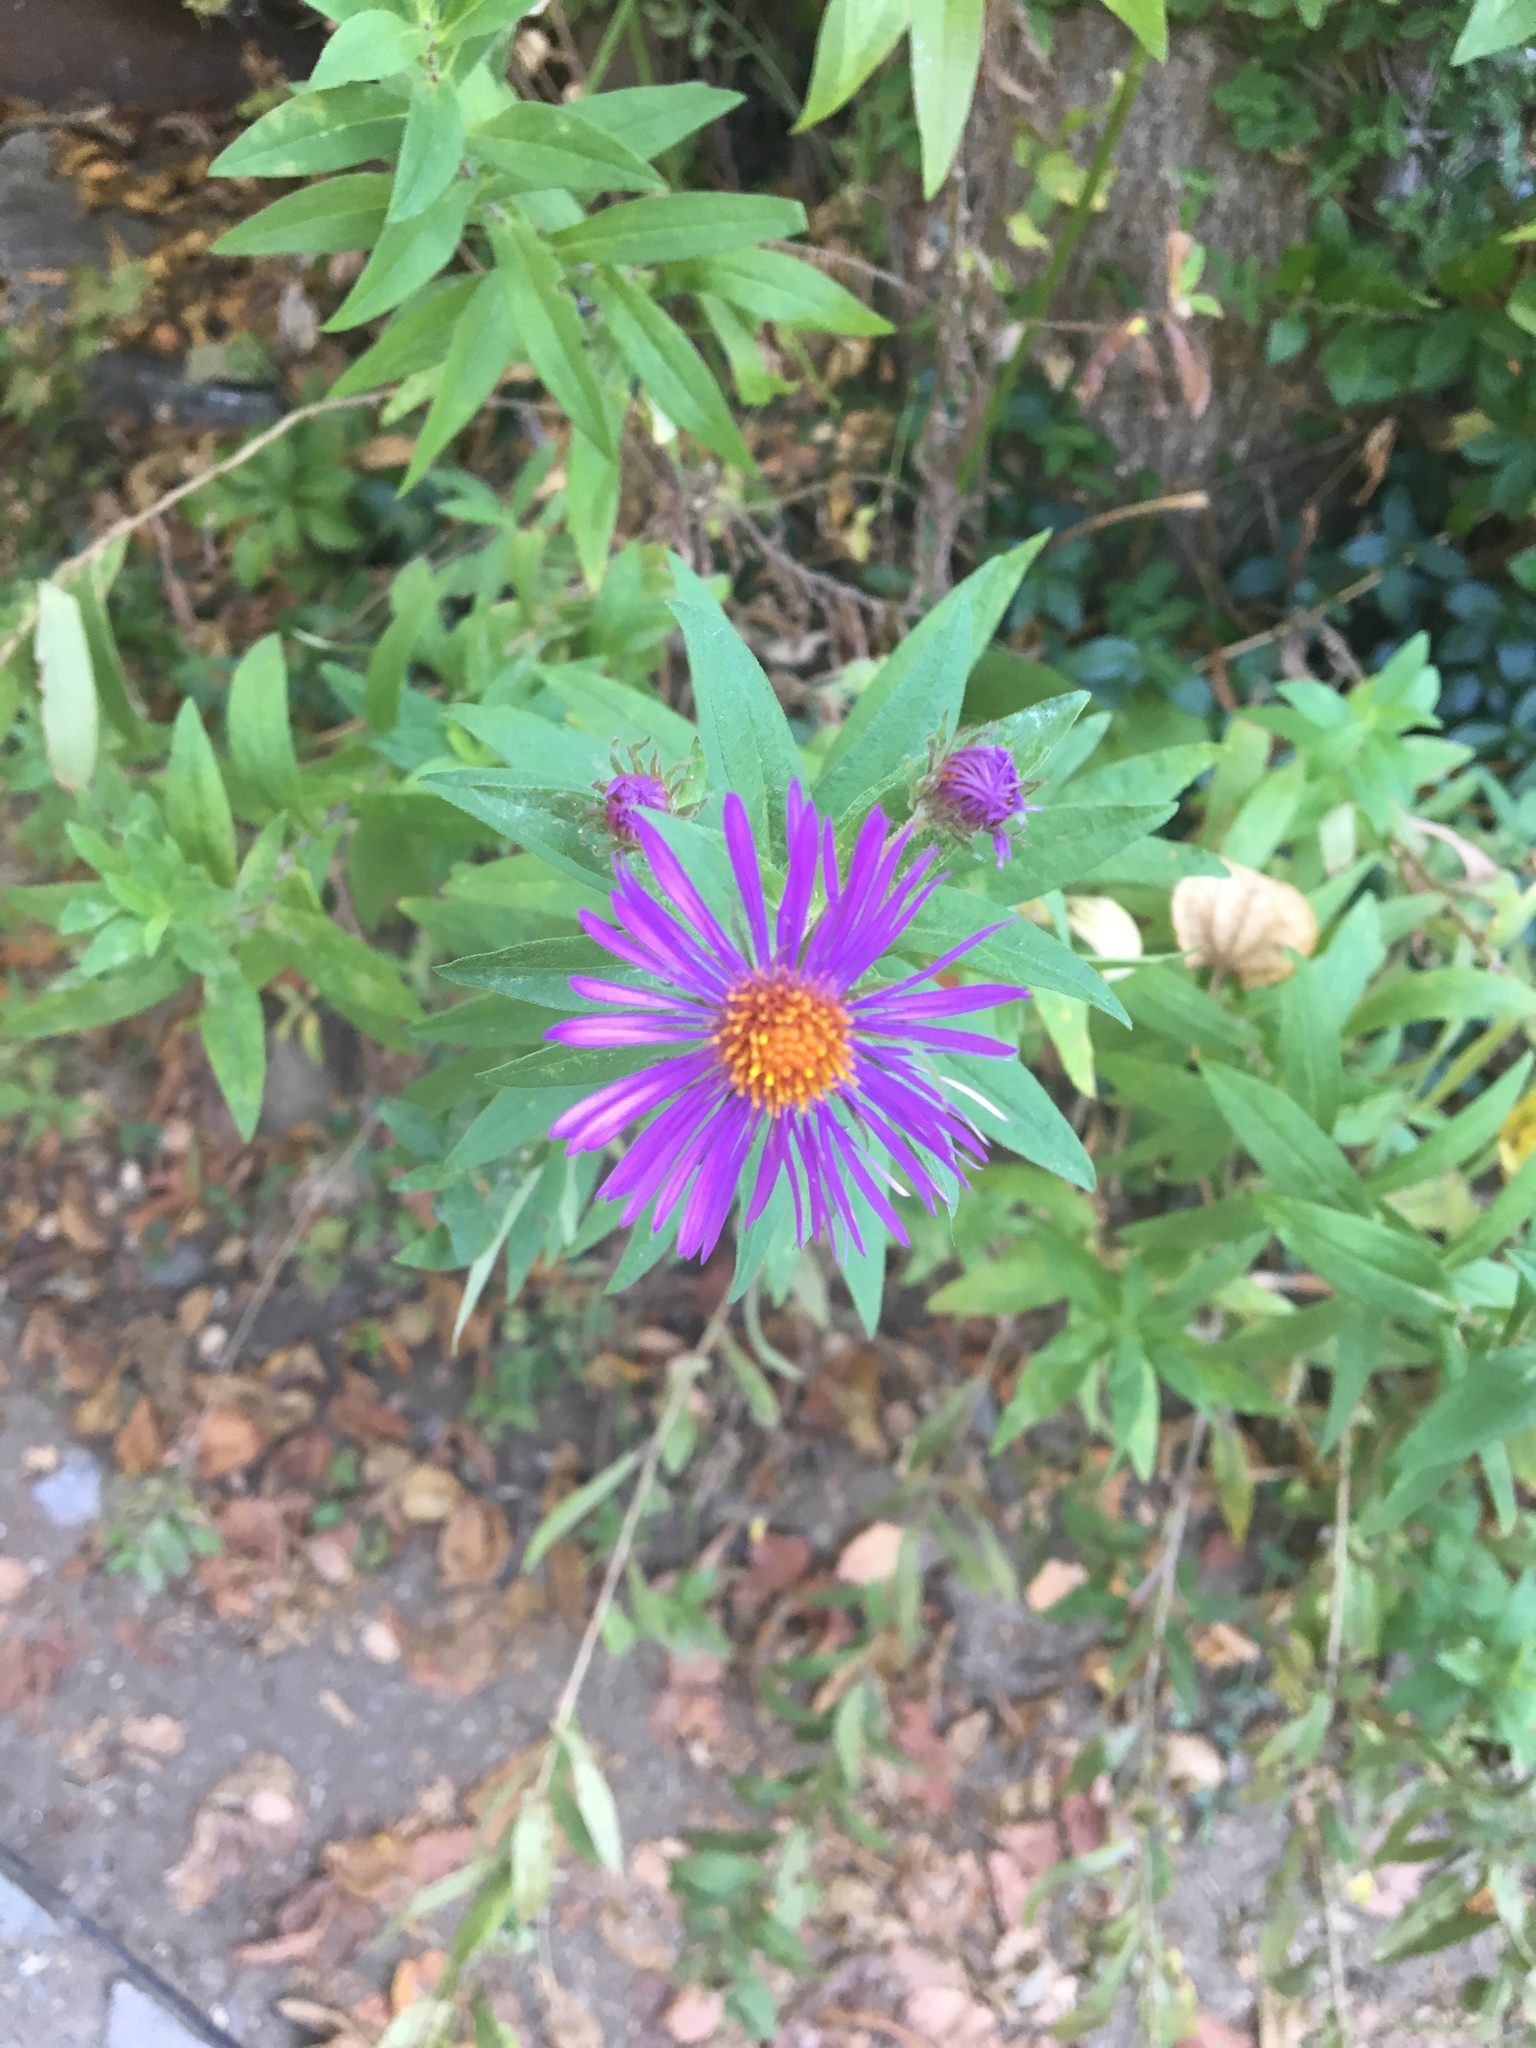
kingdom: Plantae
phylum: Tracheophyta
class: Magnoliopsida
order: Asterales
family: Asteraceae
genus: Symphyotrichum
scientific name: Symphyotrichum novae-angliae
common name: Michaelmas daisy
